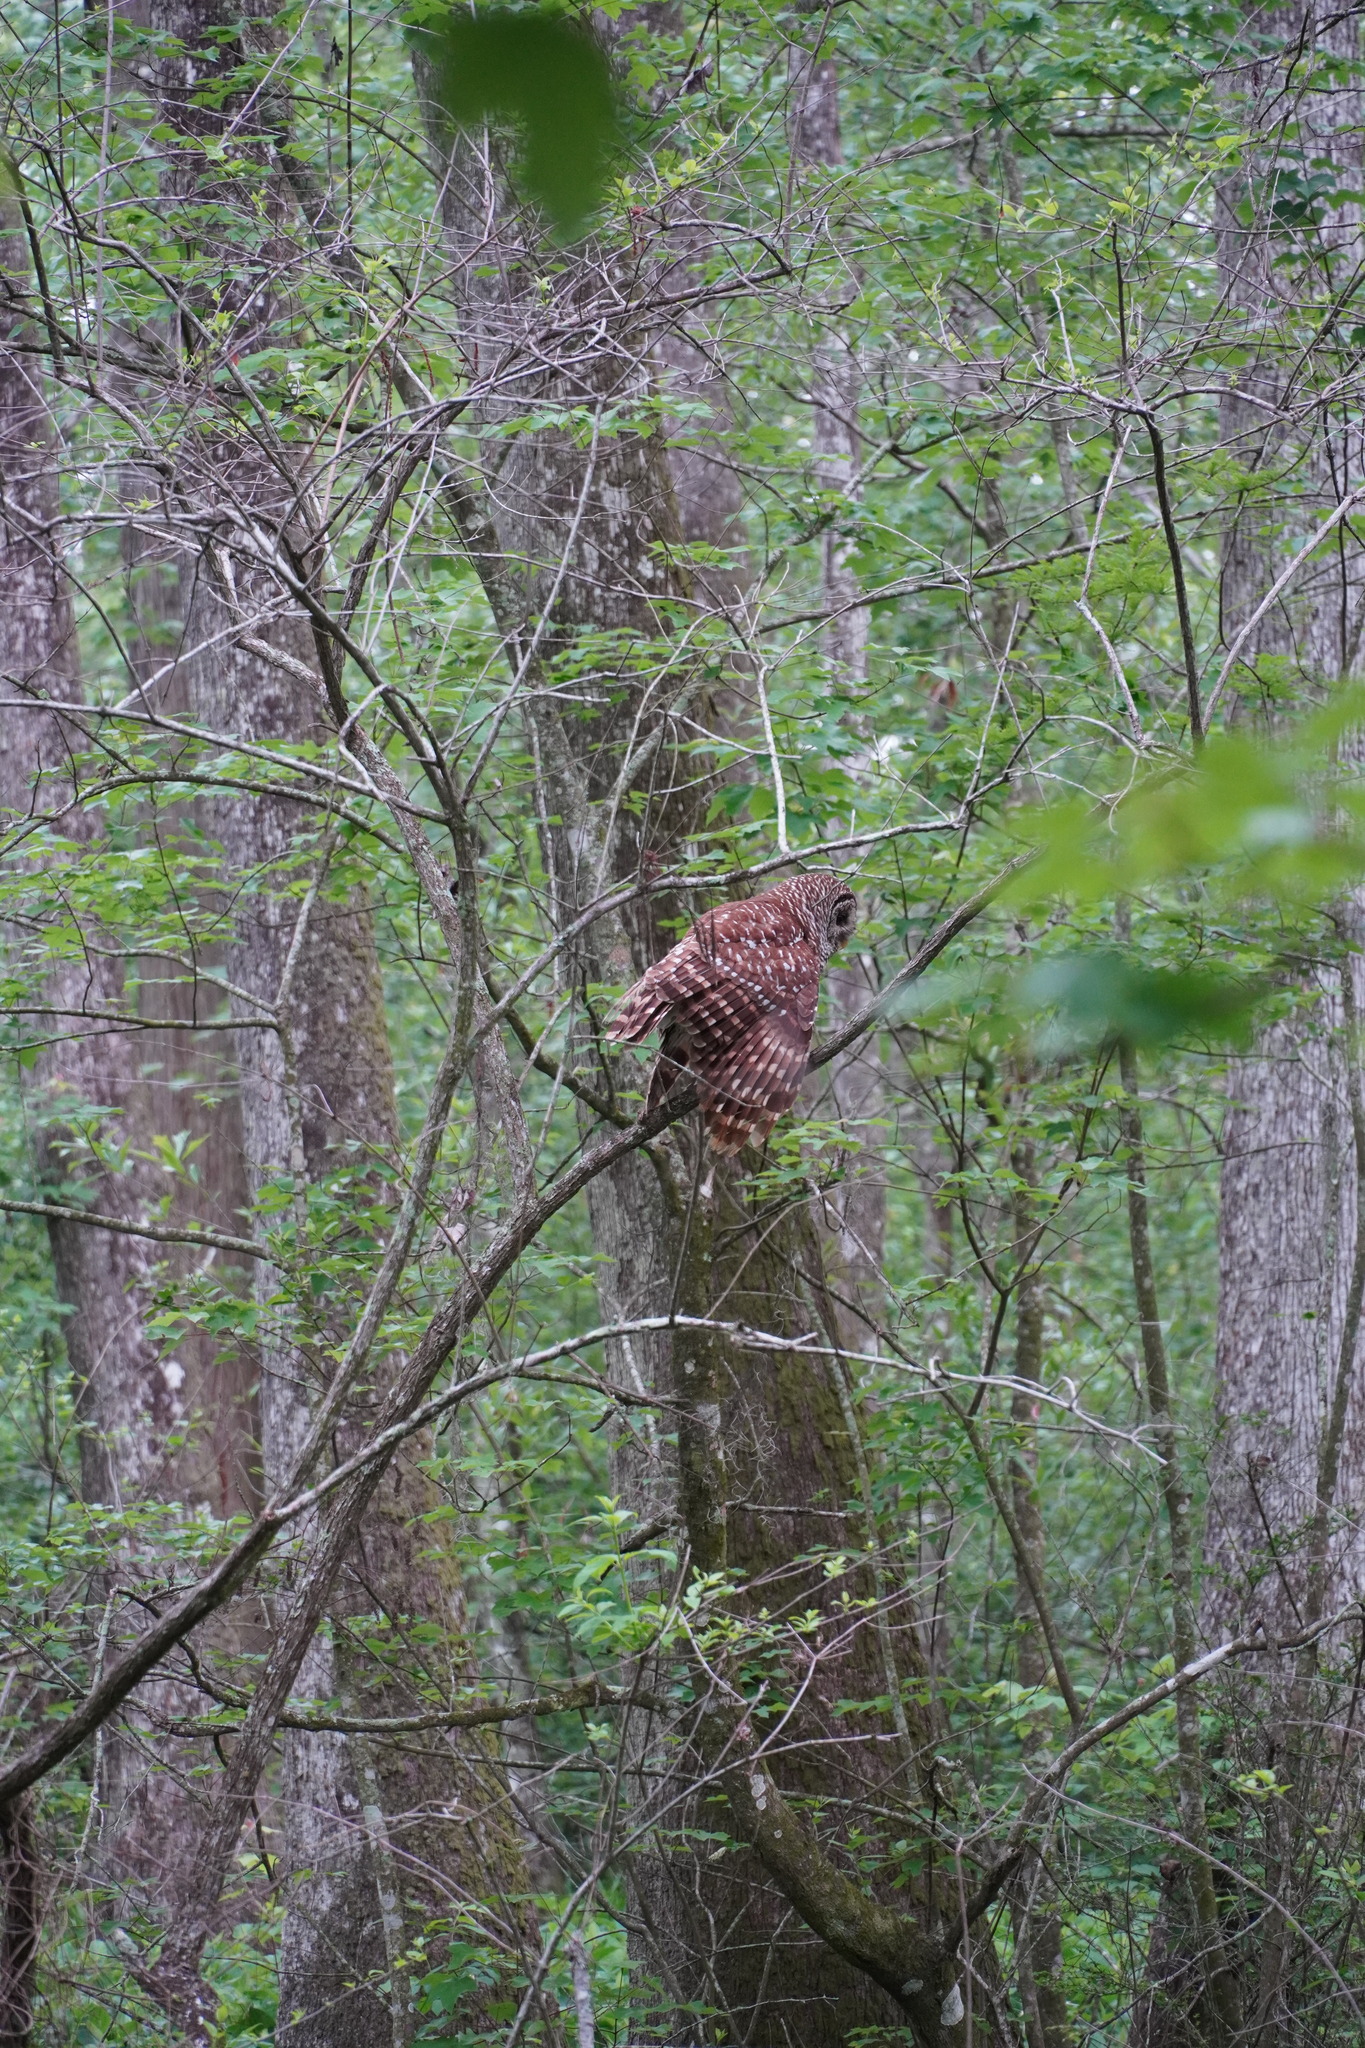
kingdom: Animalia
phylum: Chordata
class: Aves
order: Strigiformes
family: Strigidae
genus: Strix
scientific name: Strix varia
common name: Barred owl
